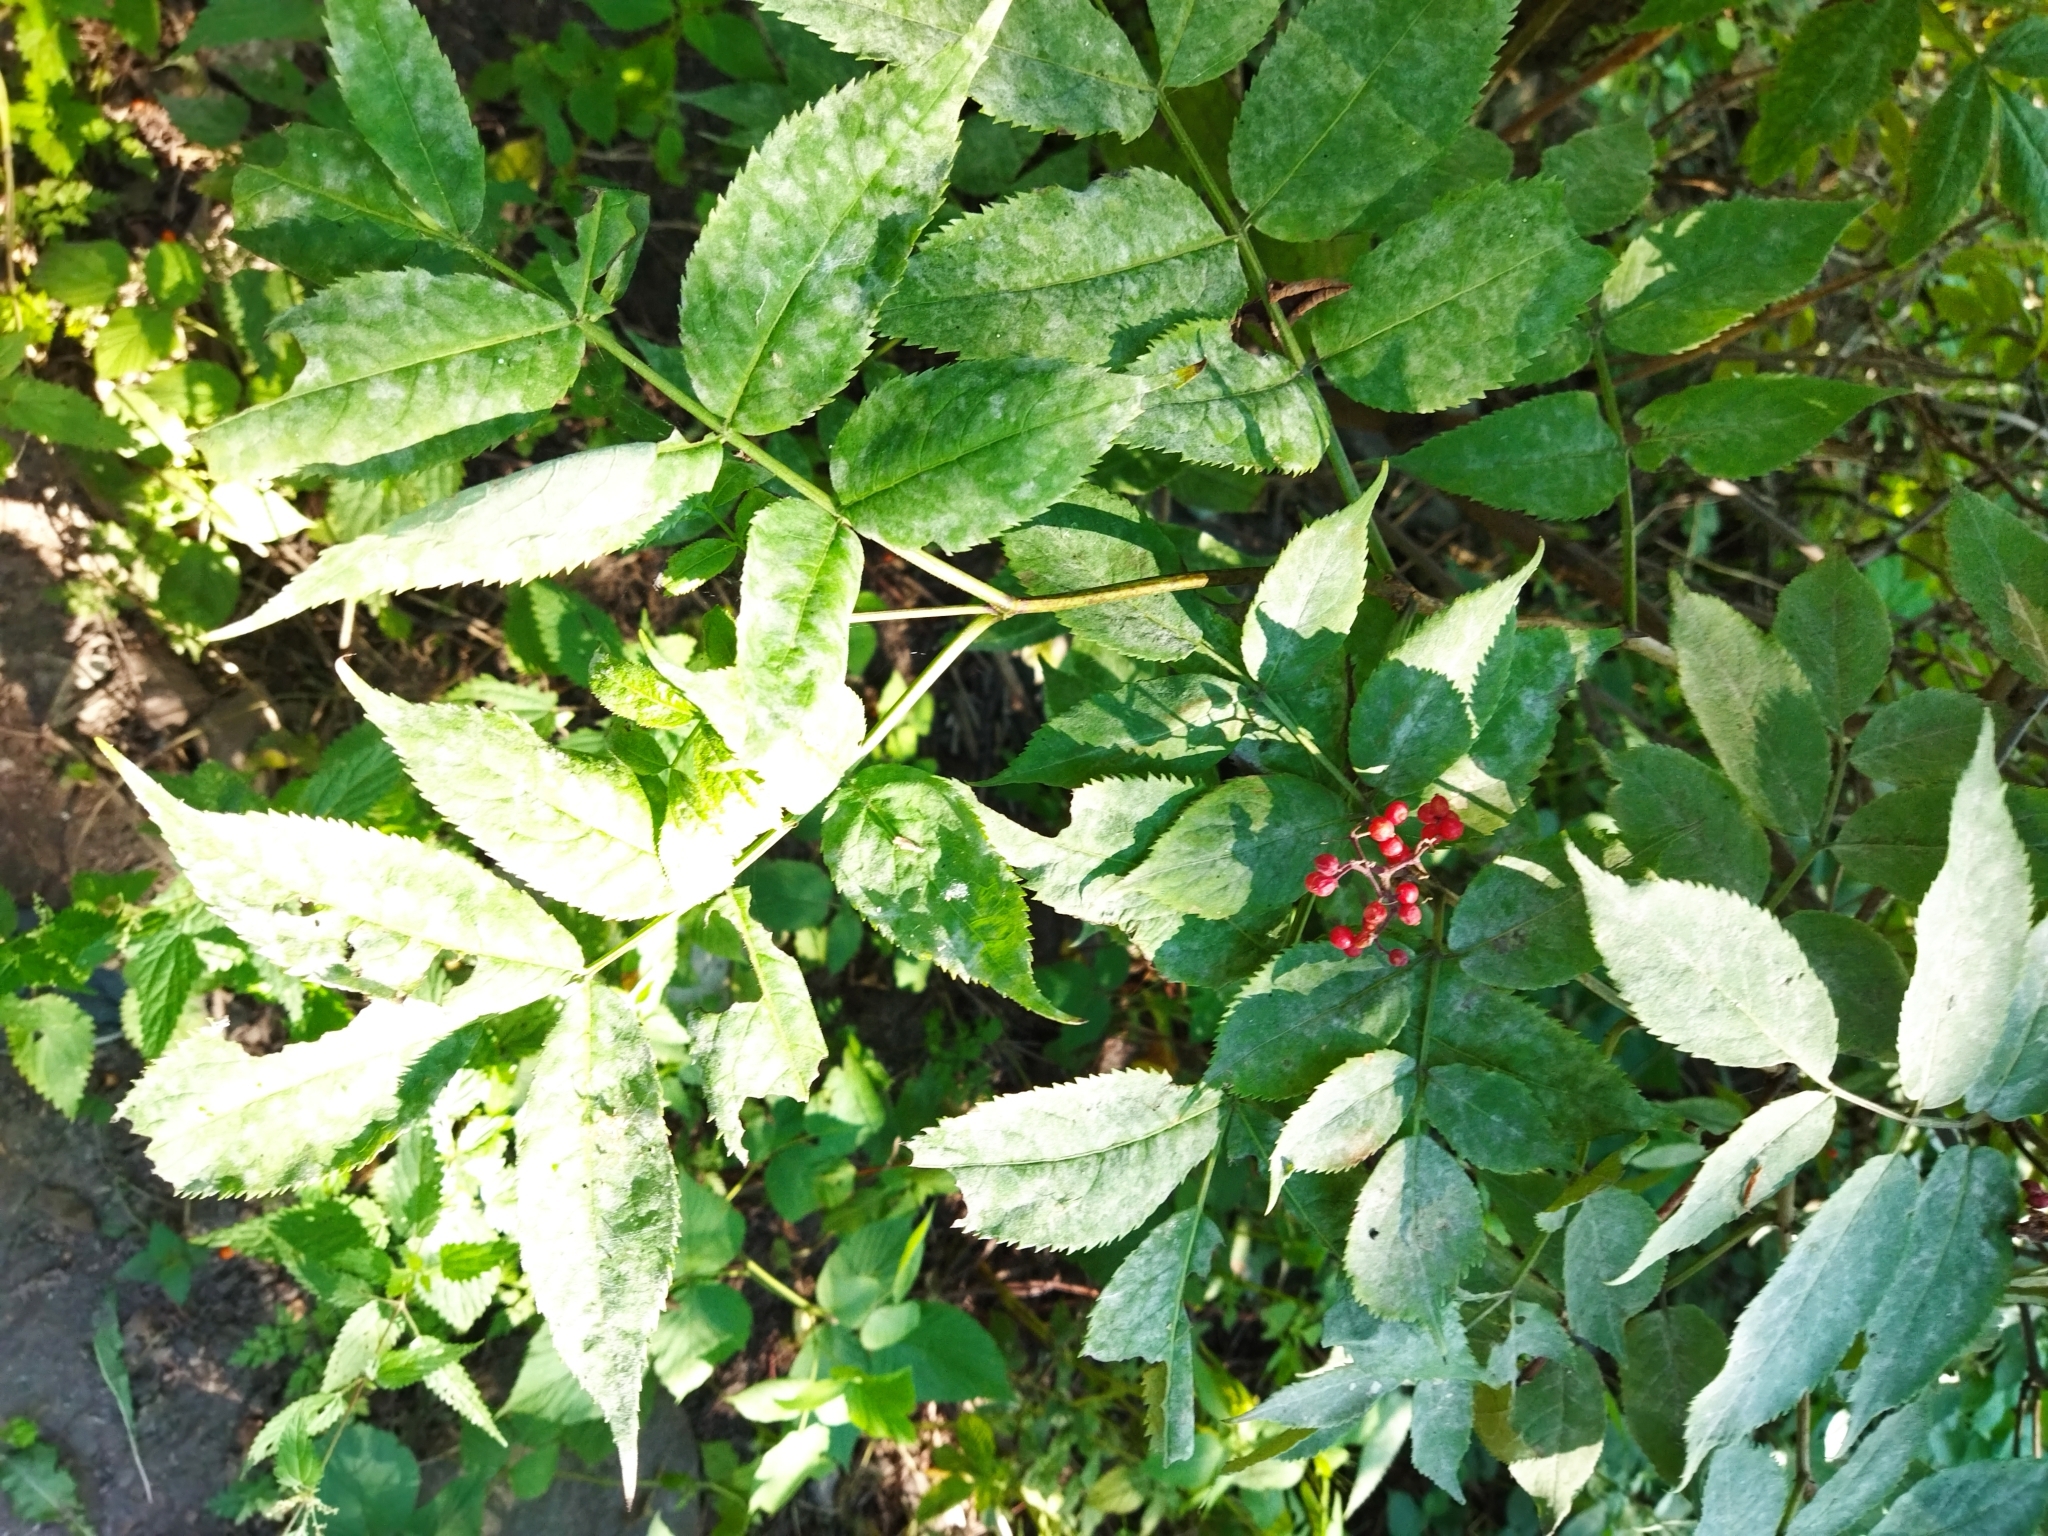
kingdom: Plantae
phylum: Tracheophyta
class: Magnoliopsida
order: Dipsacales
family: Viburnaceae
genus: Sambucus
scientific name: Sambucus racemosa
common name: Red-berried elder
